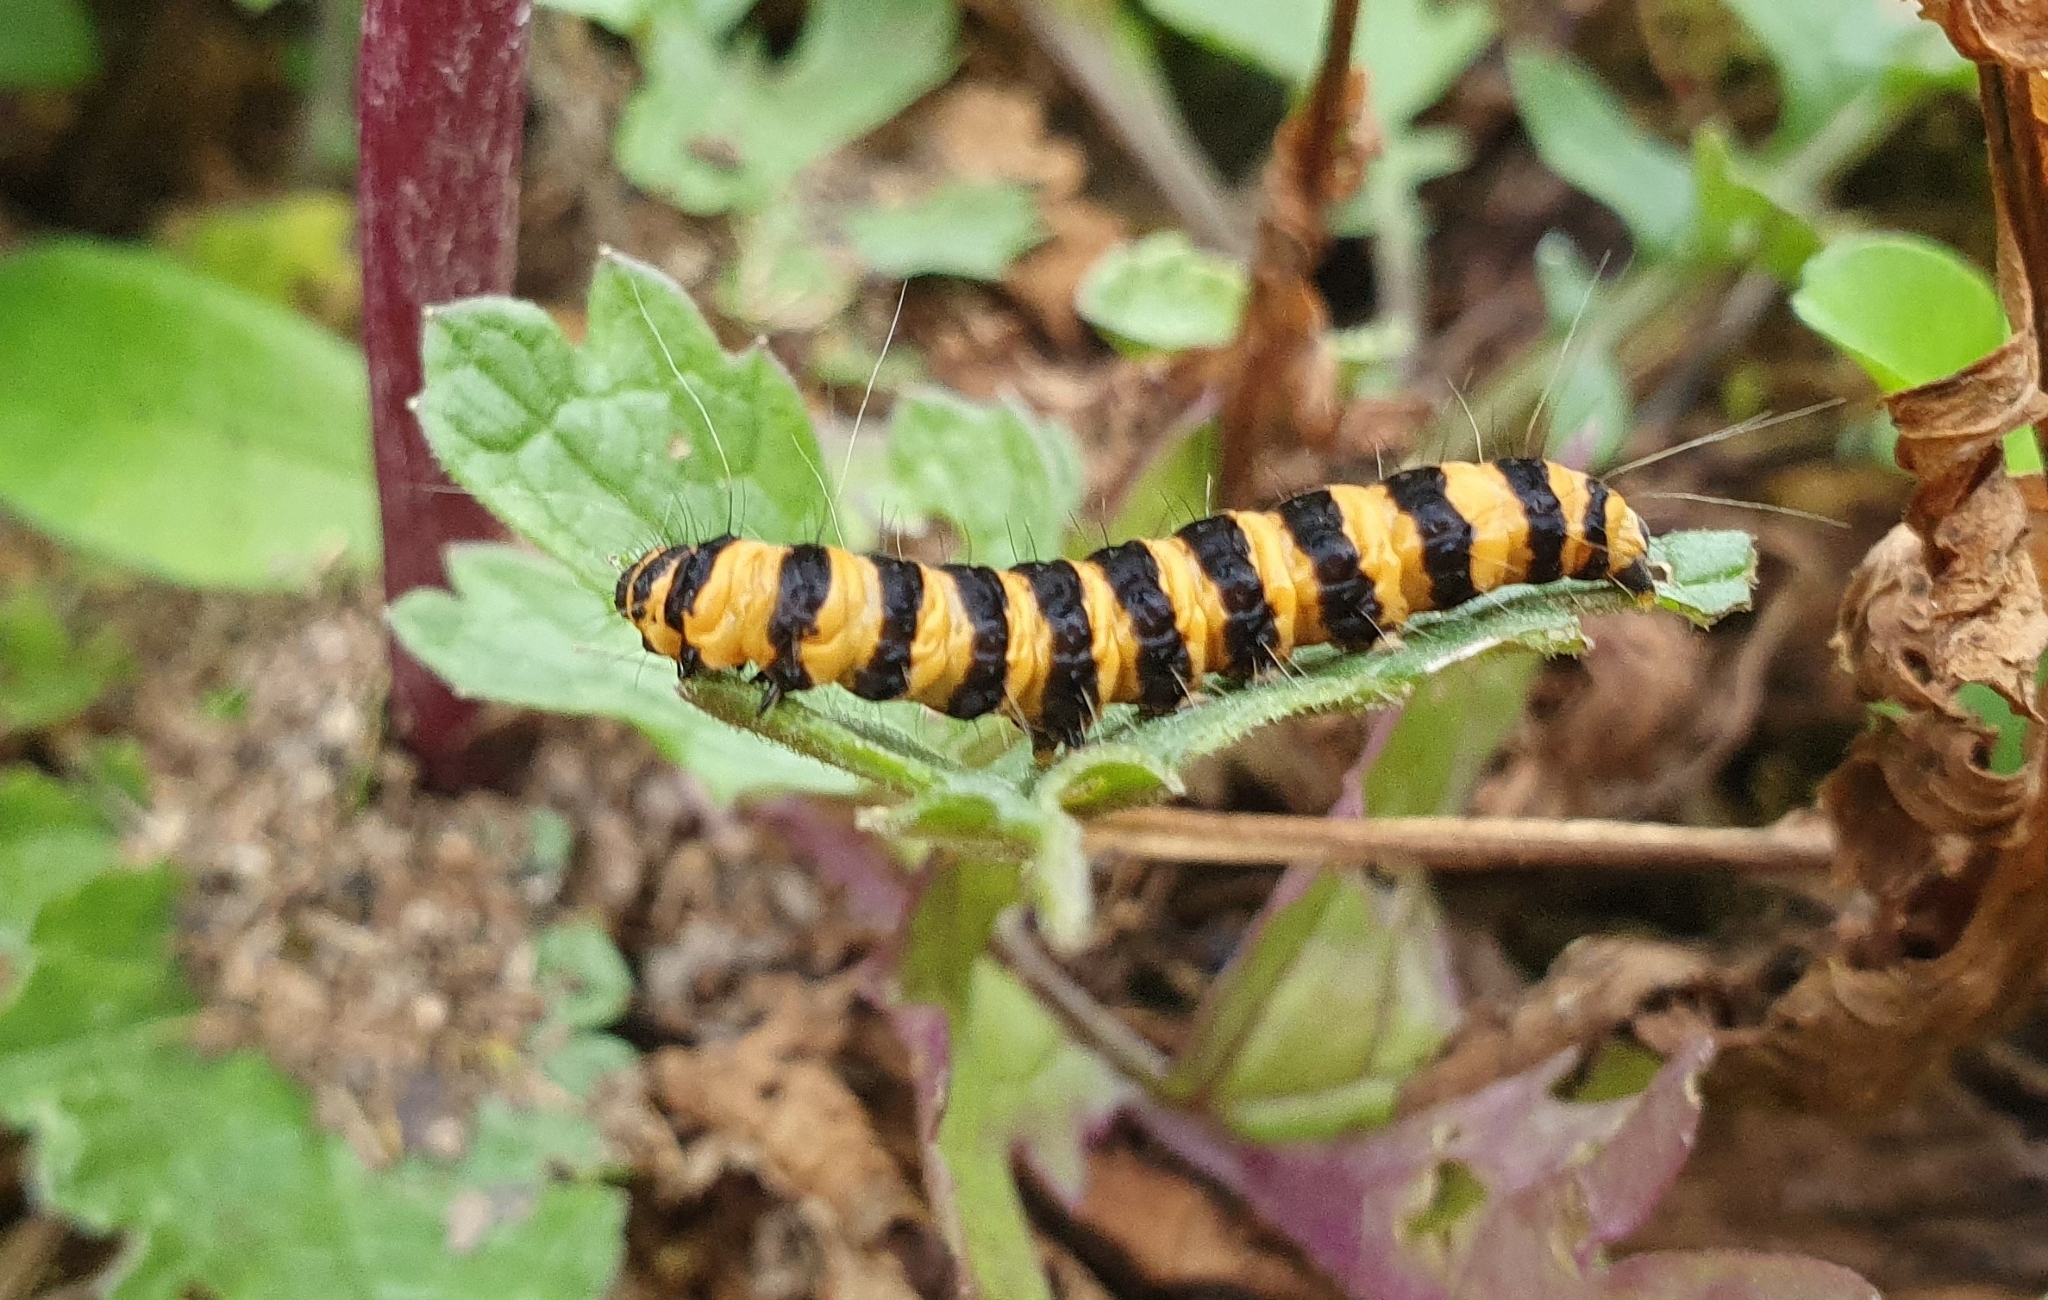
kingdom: Animalia
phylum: Arthropoda
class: Insecta
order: Lepidoptera
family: Erebidae
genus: Tyria
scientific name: Tyria jacobaeae
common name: Cinnabar
